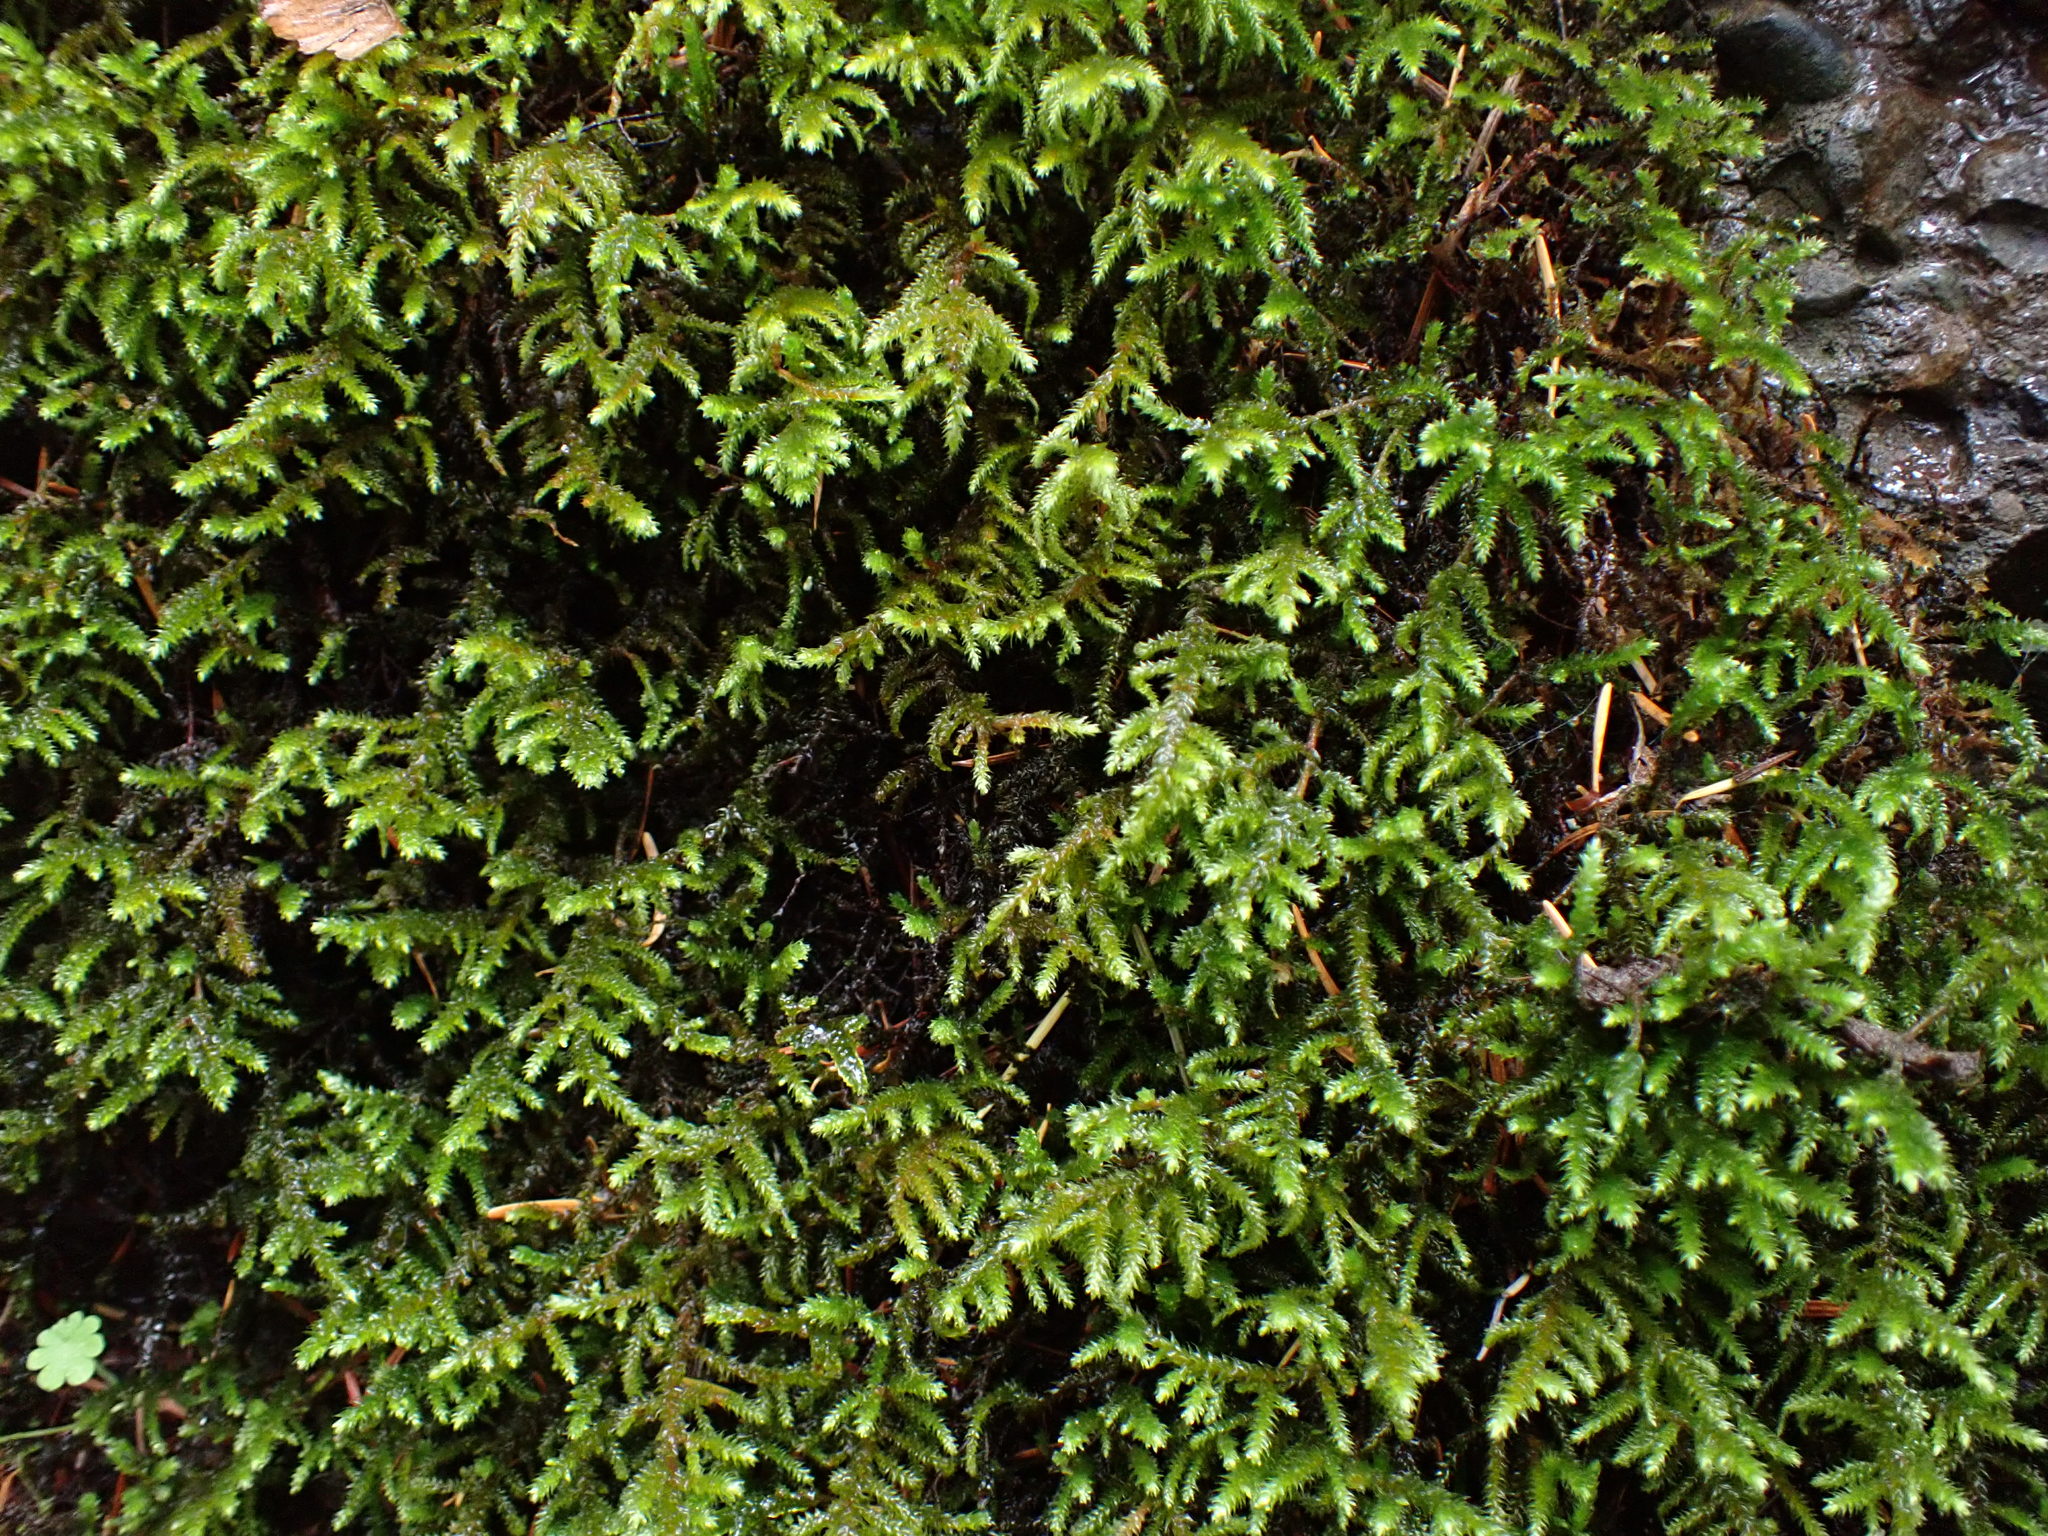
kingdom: Plantae
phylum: Bryophyta
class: Bryopsida
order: Hypnales
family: Antitrichiaceae
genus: Antitrichia
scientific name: Antitrichia californica
